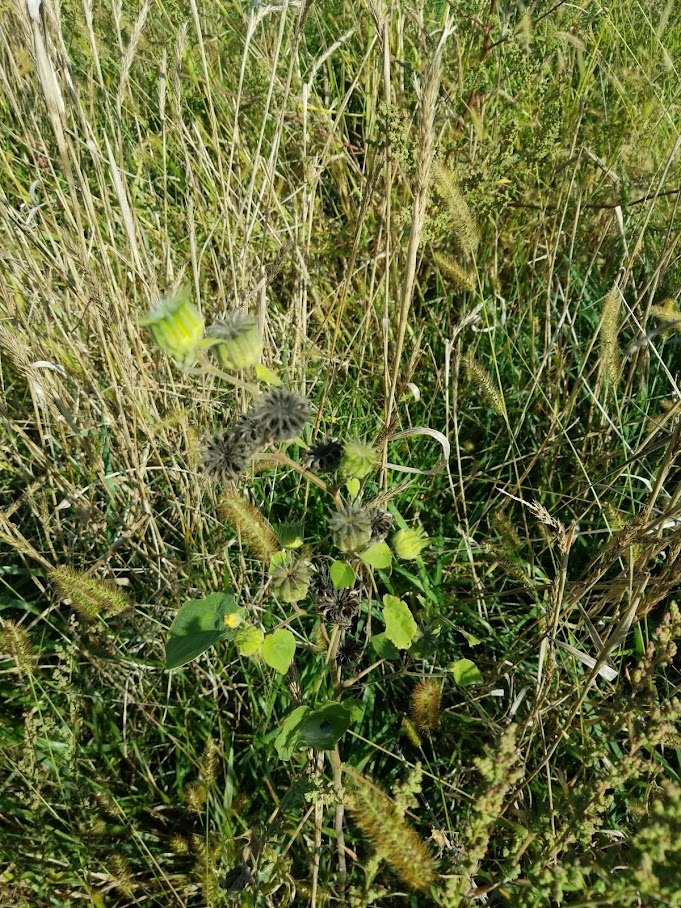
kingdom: Plantae
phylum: Tracheophyta
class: Magnoliopsida
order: Malvales
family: Malvaceae
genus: Abutilon
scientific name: Abutilon theophrasti
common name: Velvetleaf
